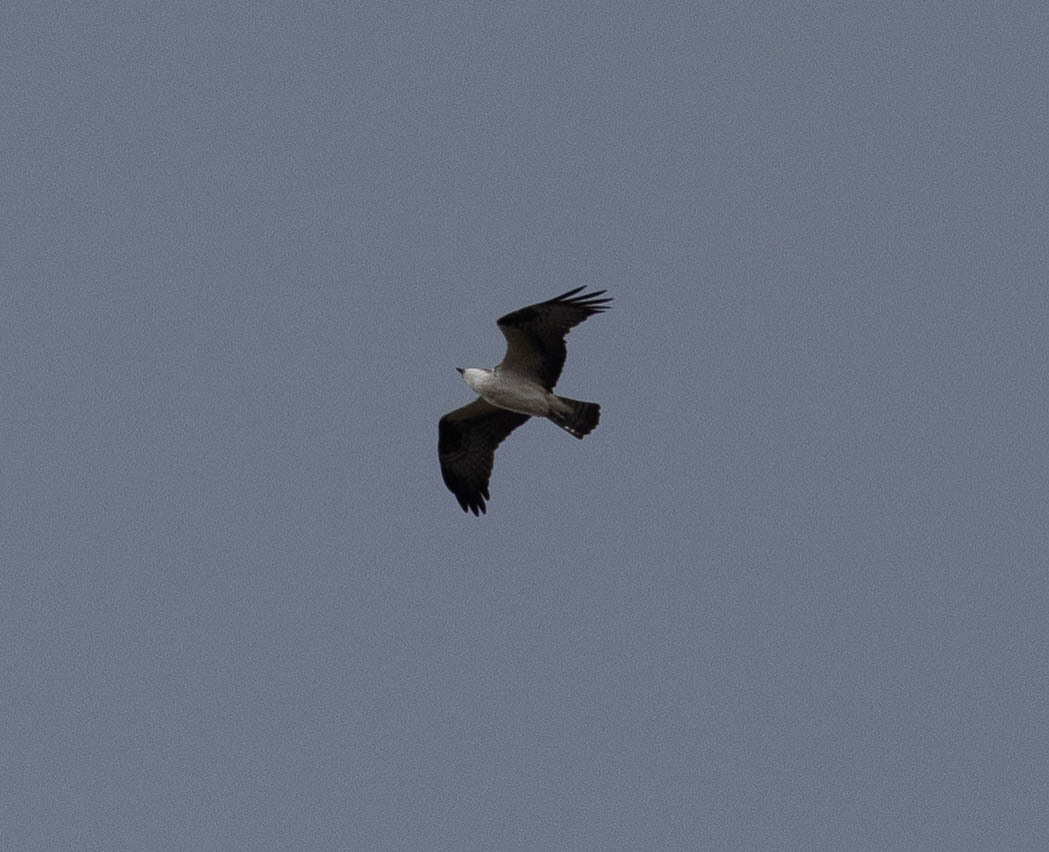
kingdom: Animalia
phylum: Chordata
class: Aves
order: Accipitriformes
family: Pandionidae
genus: Pandion
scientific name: Pandion haliaetus
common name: Osprey
